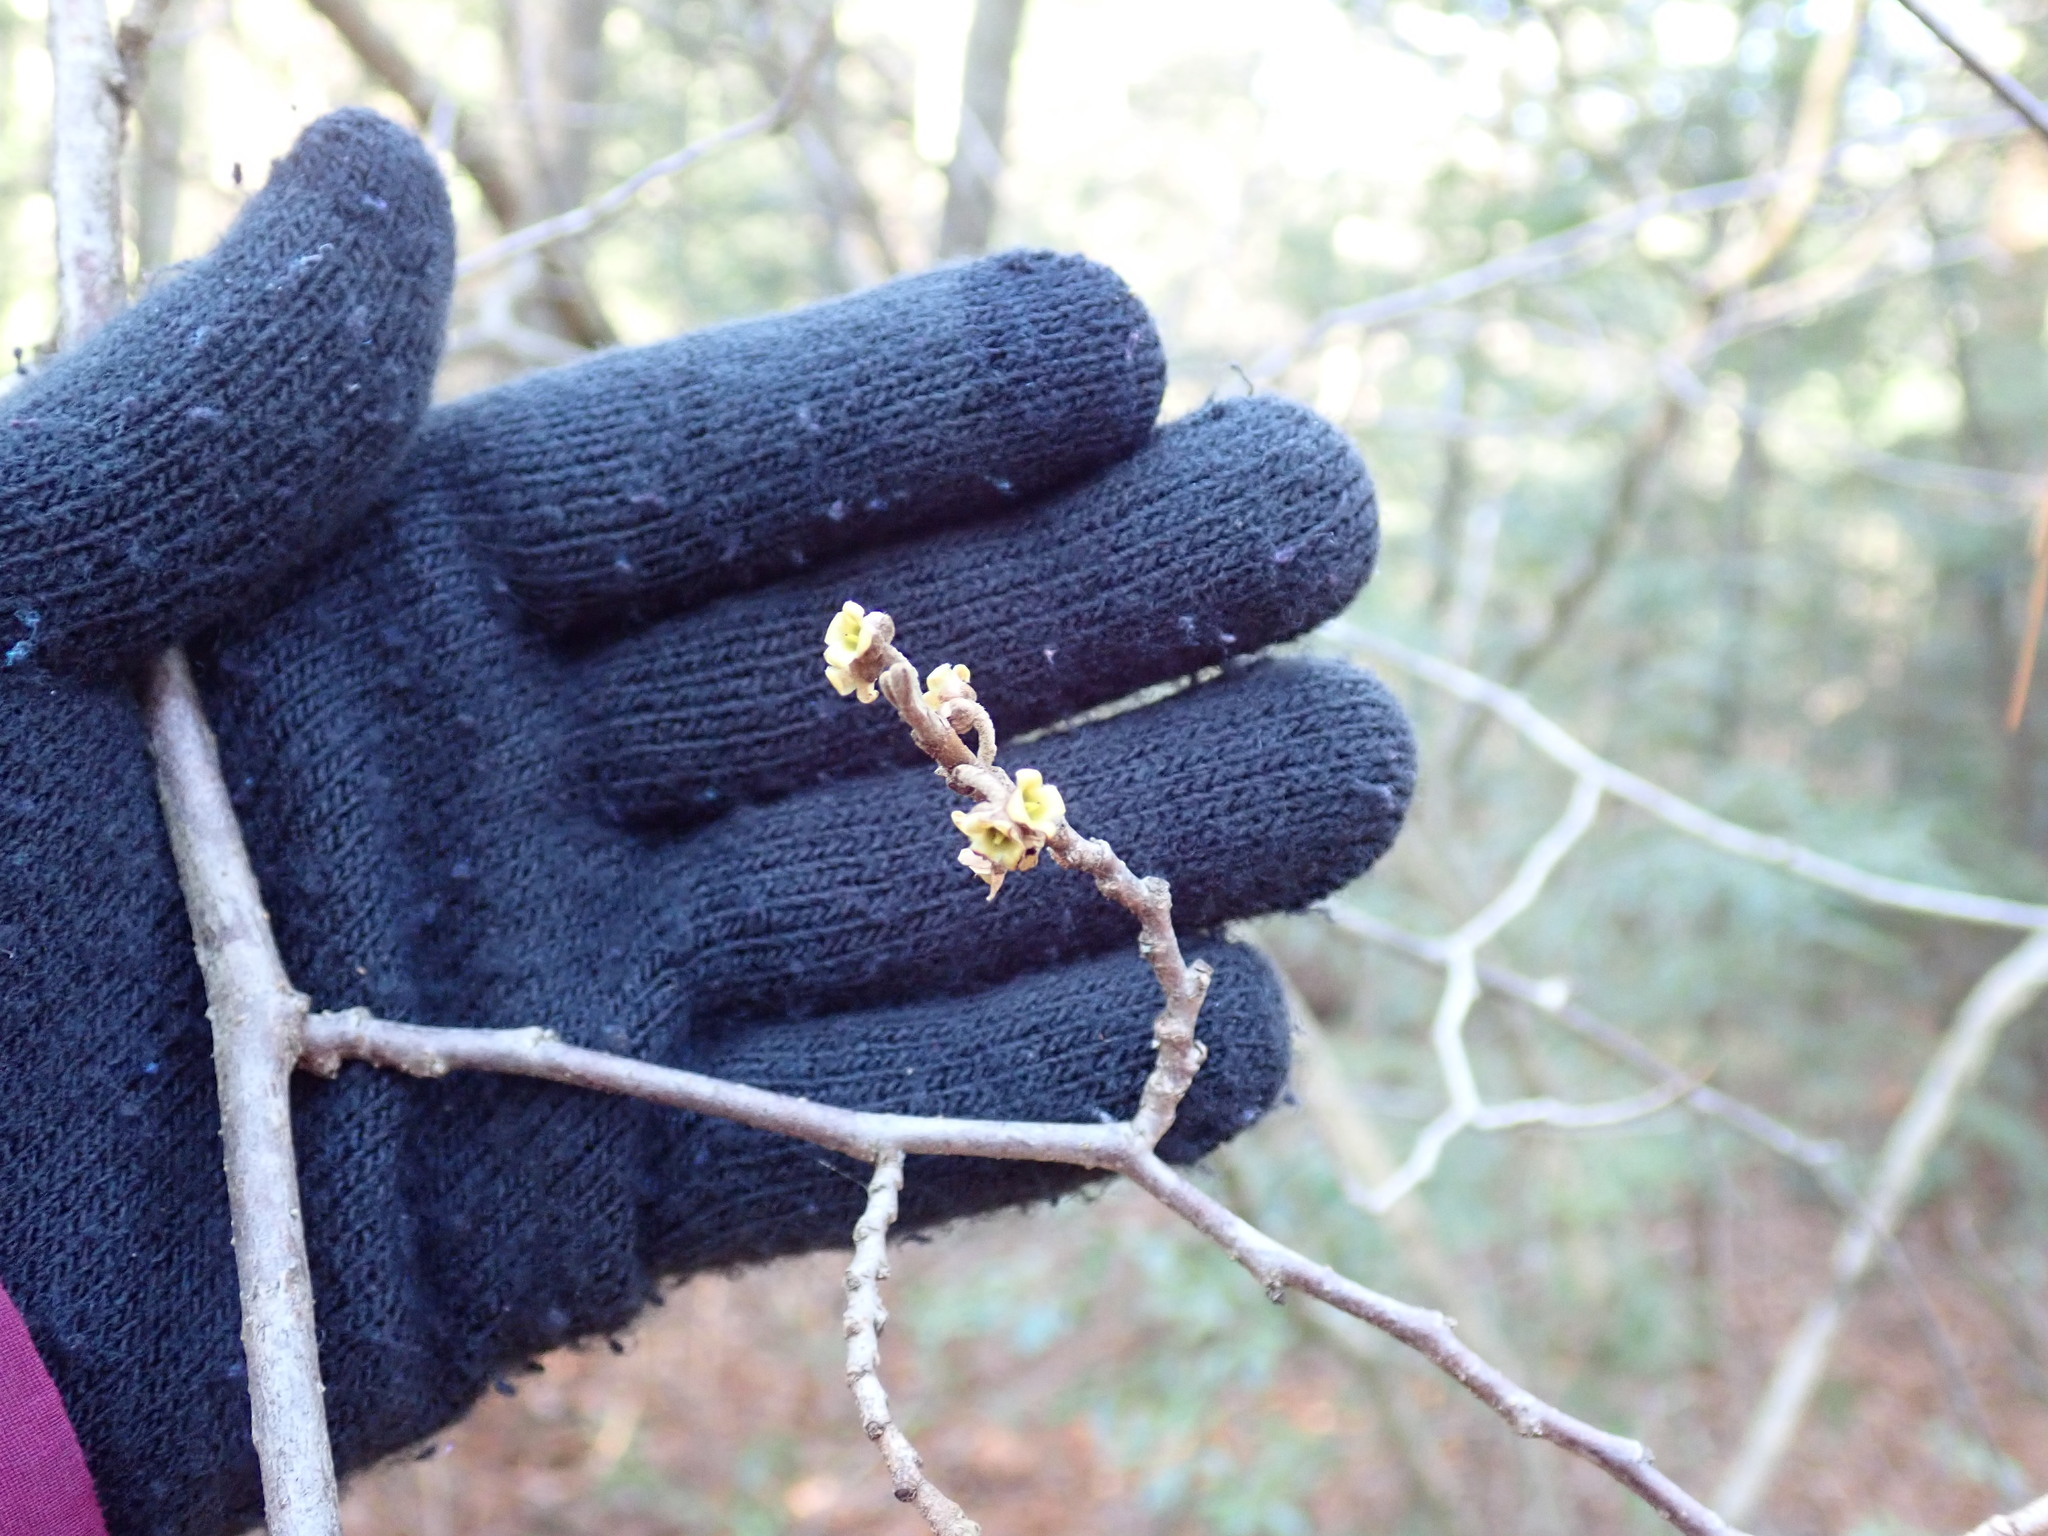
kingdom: Plantae
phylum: Tracheophyta
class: Magnoliopsida
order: Saxifragales
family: Hamamelidaceae
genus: Hamamelis
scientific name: Hamamelis virginiana
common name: Witch-hazel
